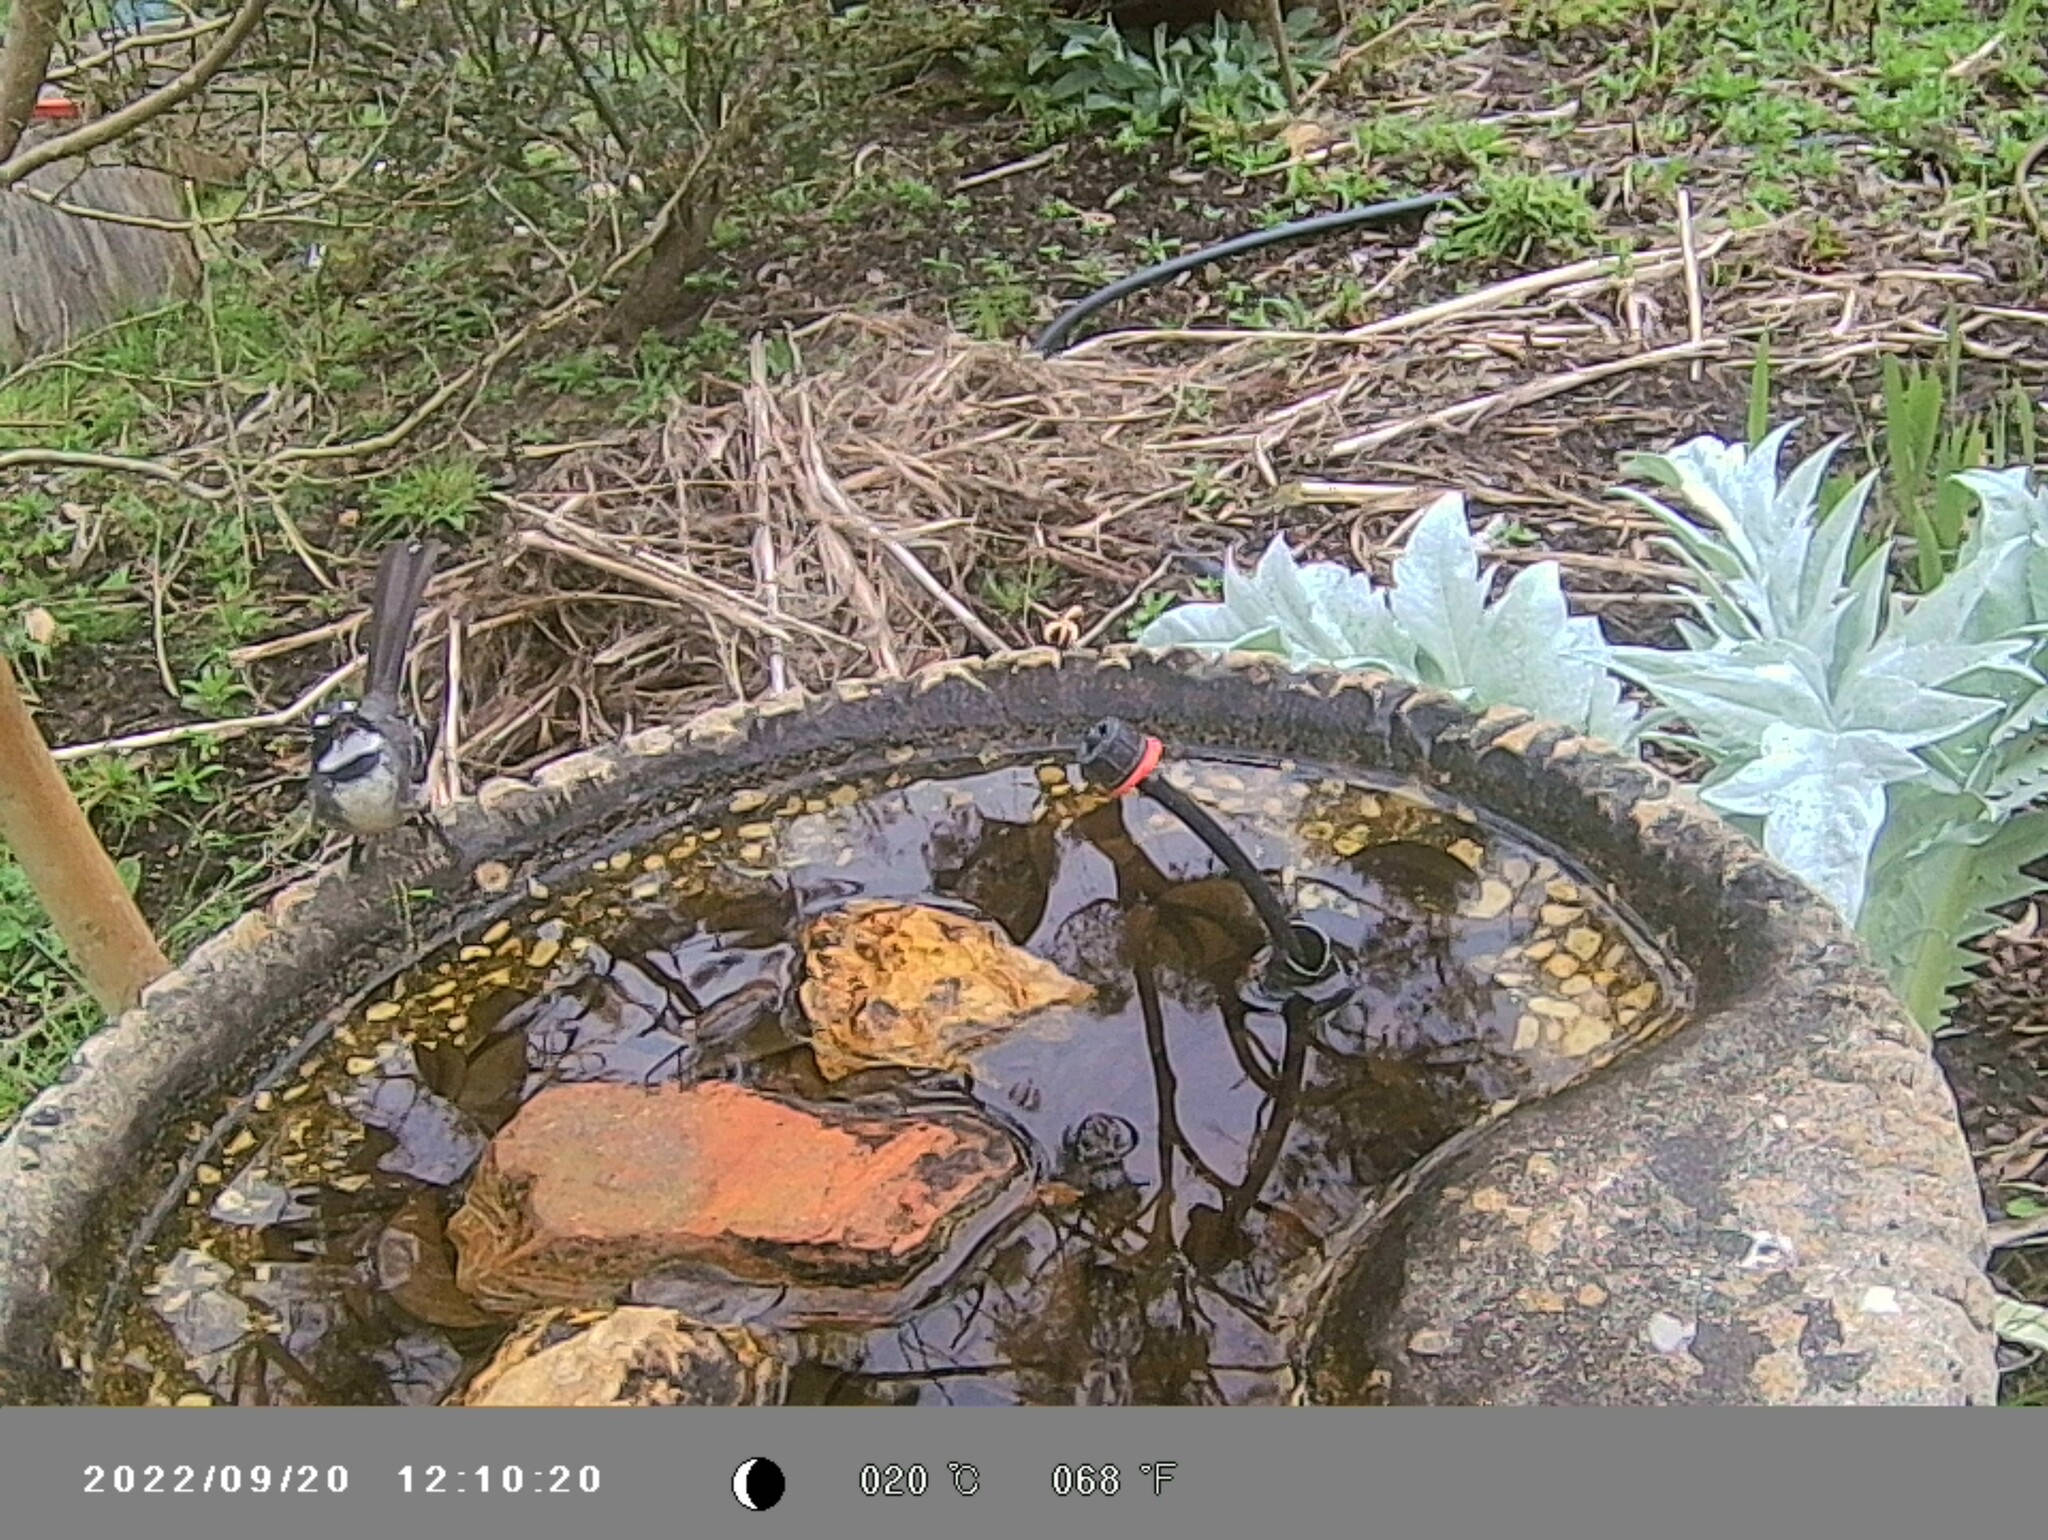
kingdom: Animalia
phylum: Chordata
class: Aves
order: Passeriformes
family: Rhipiduridae
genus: Rhipidura
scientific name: Rhipidura albiscapa
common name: Grey fantail
